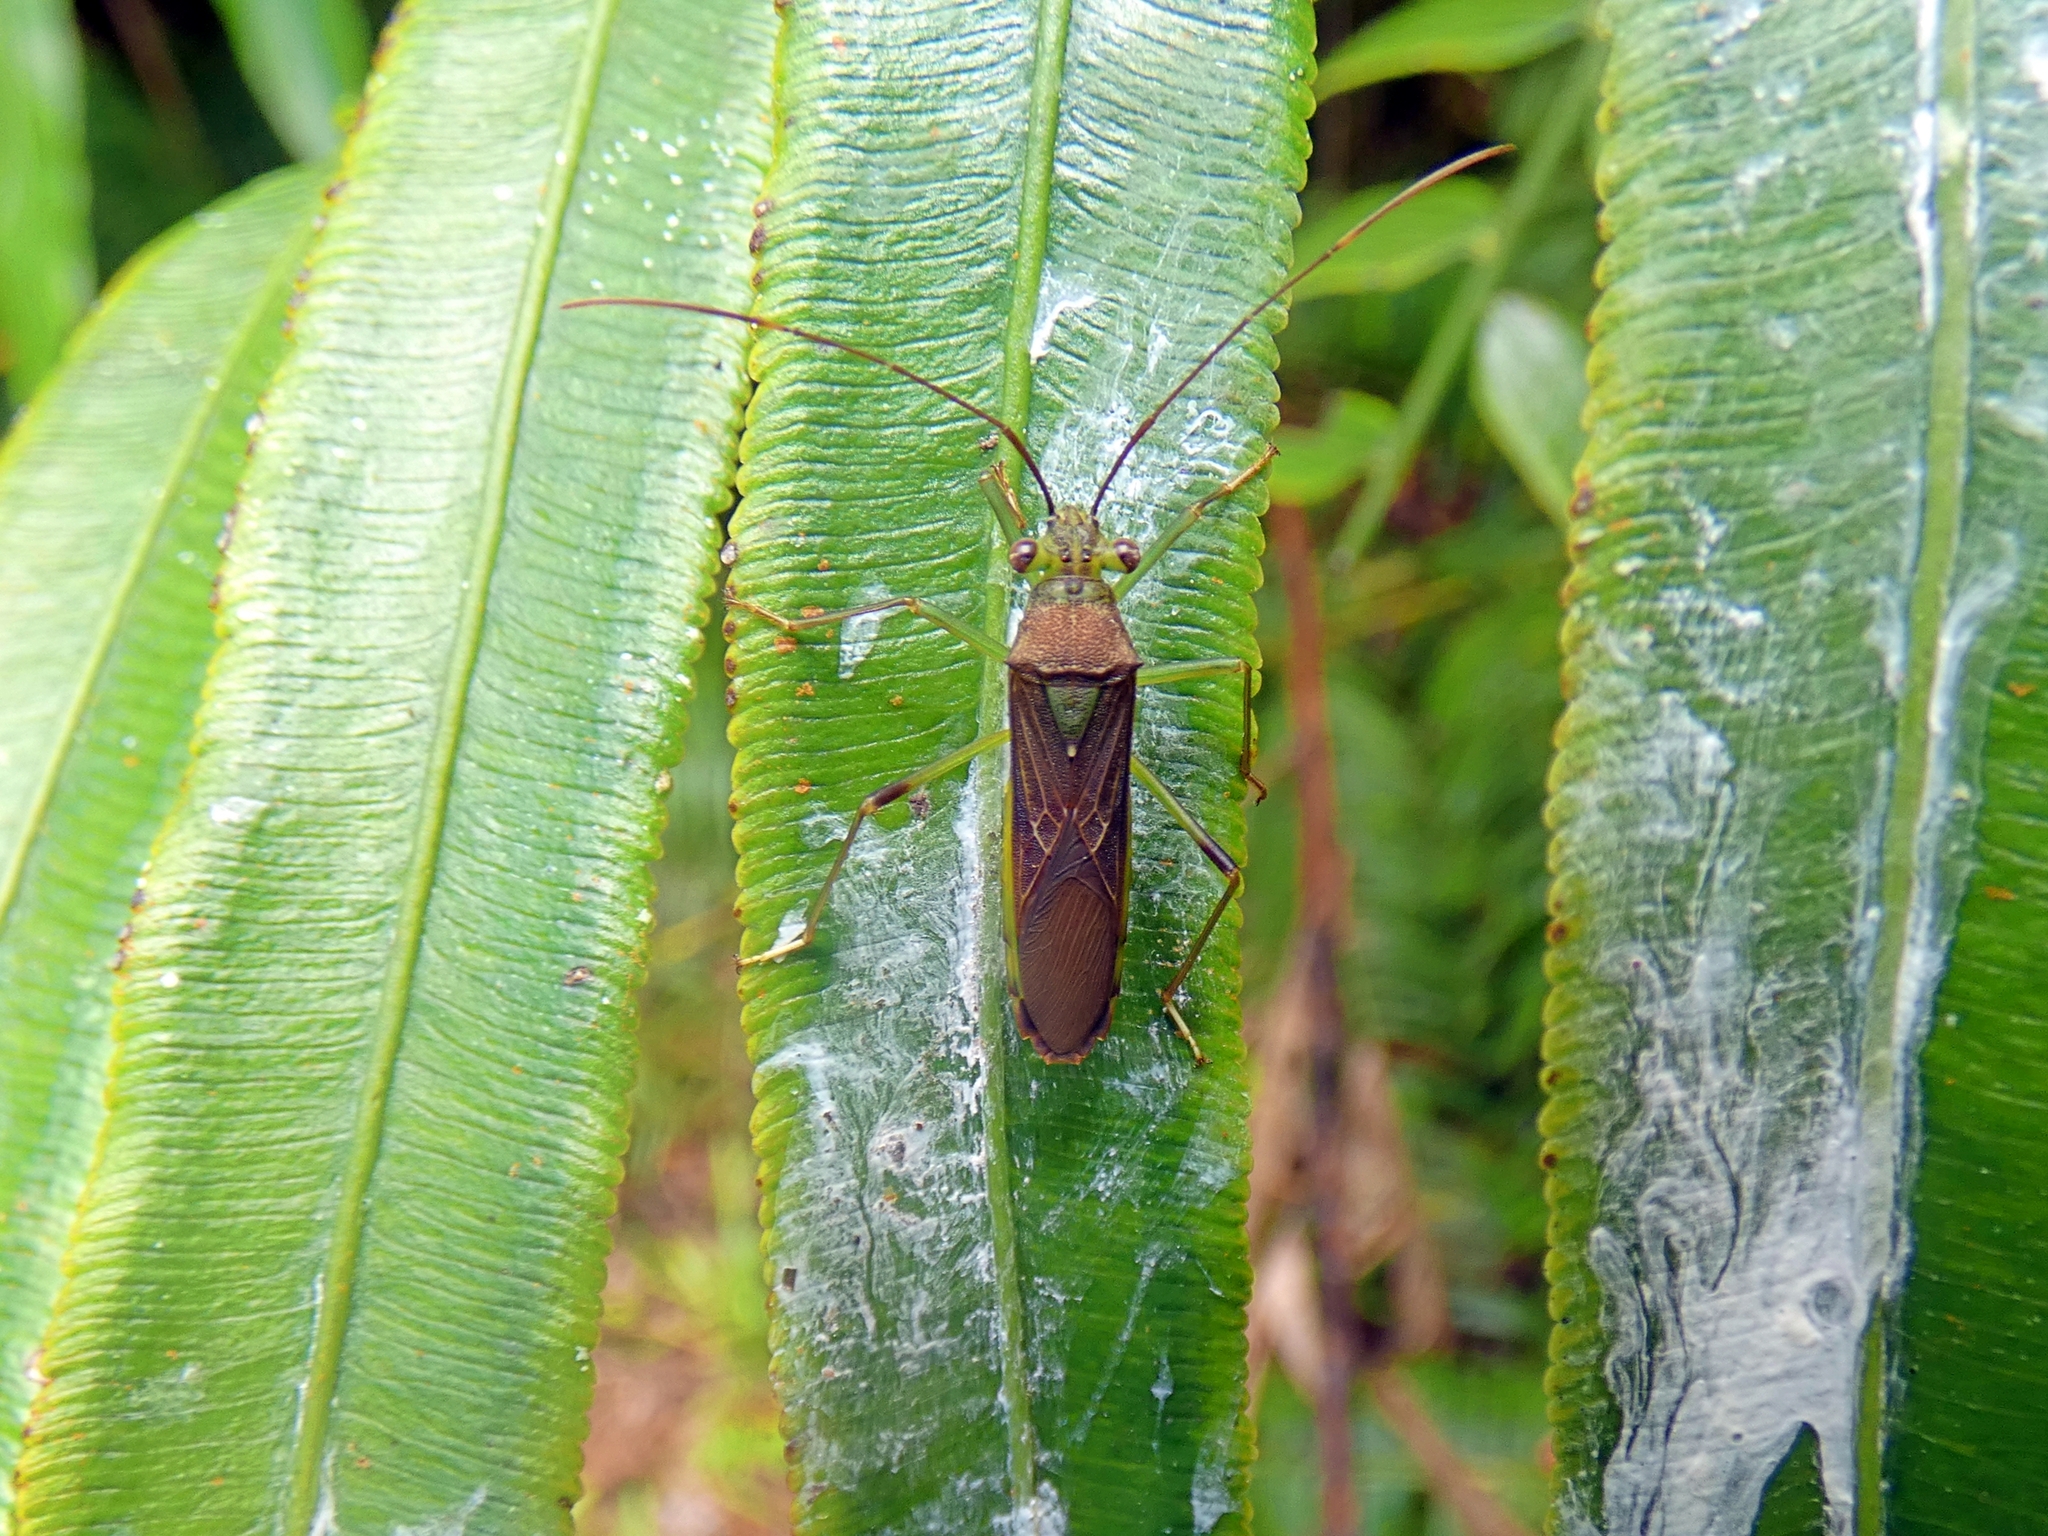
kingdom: Animalia
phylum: Arthropoda
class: Insecta
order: Hemiptera
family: Coreidae
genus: Piramurana
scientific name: Piramurana cyclops
